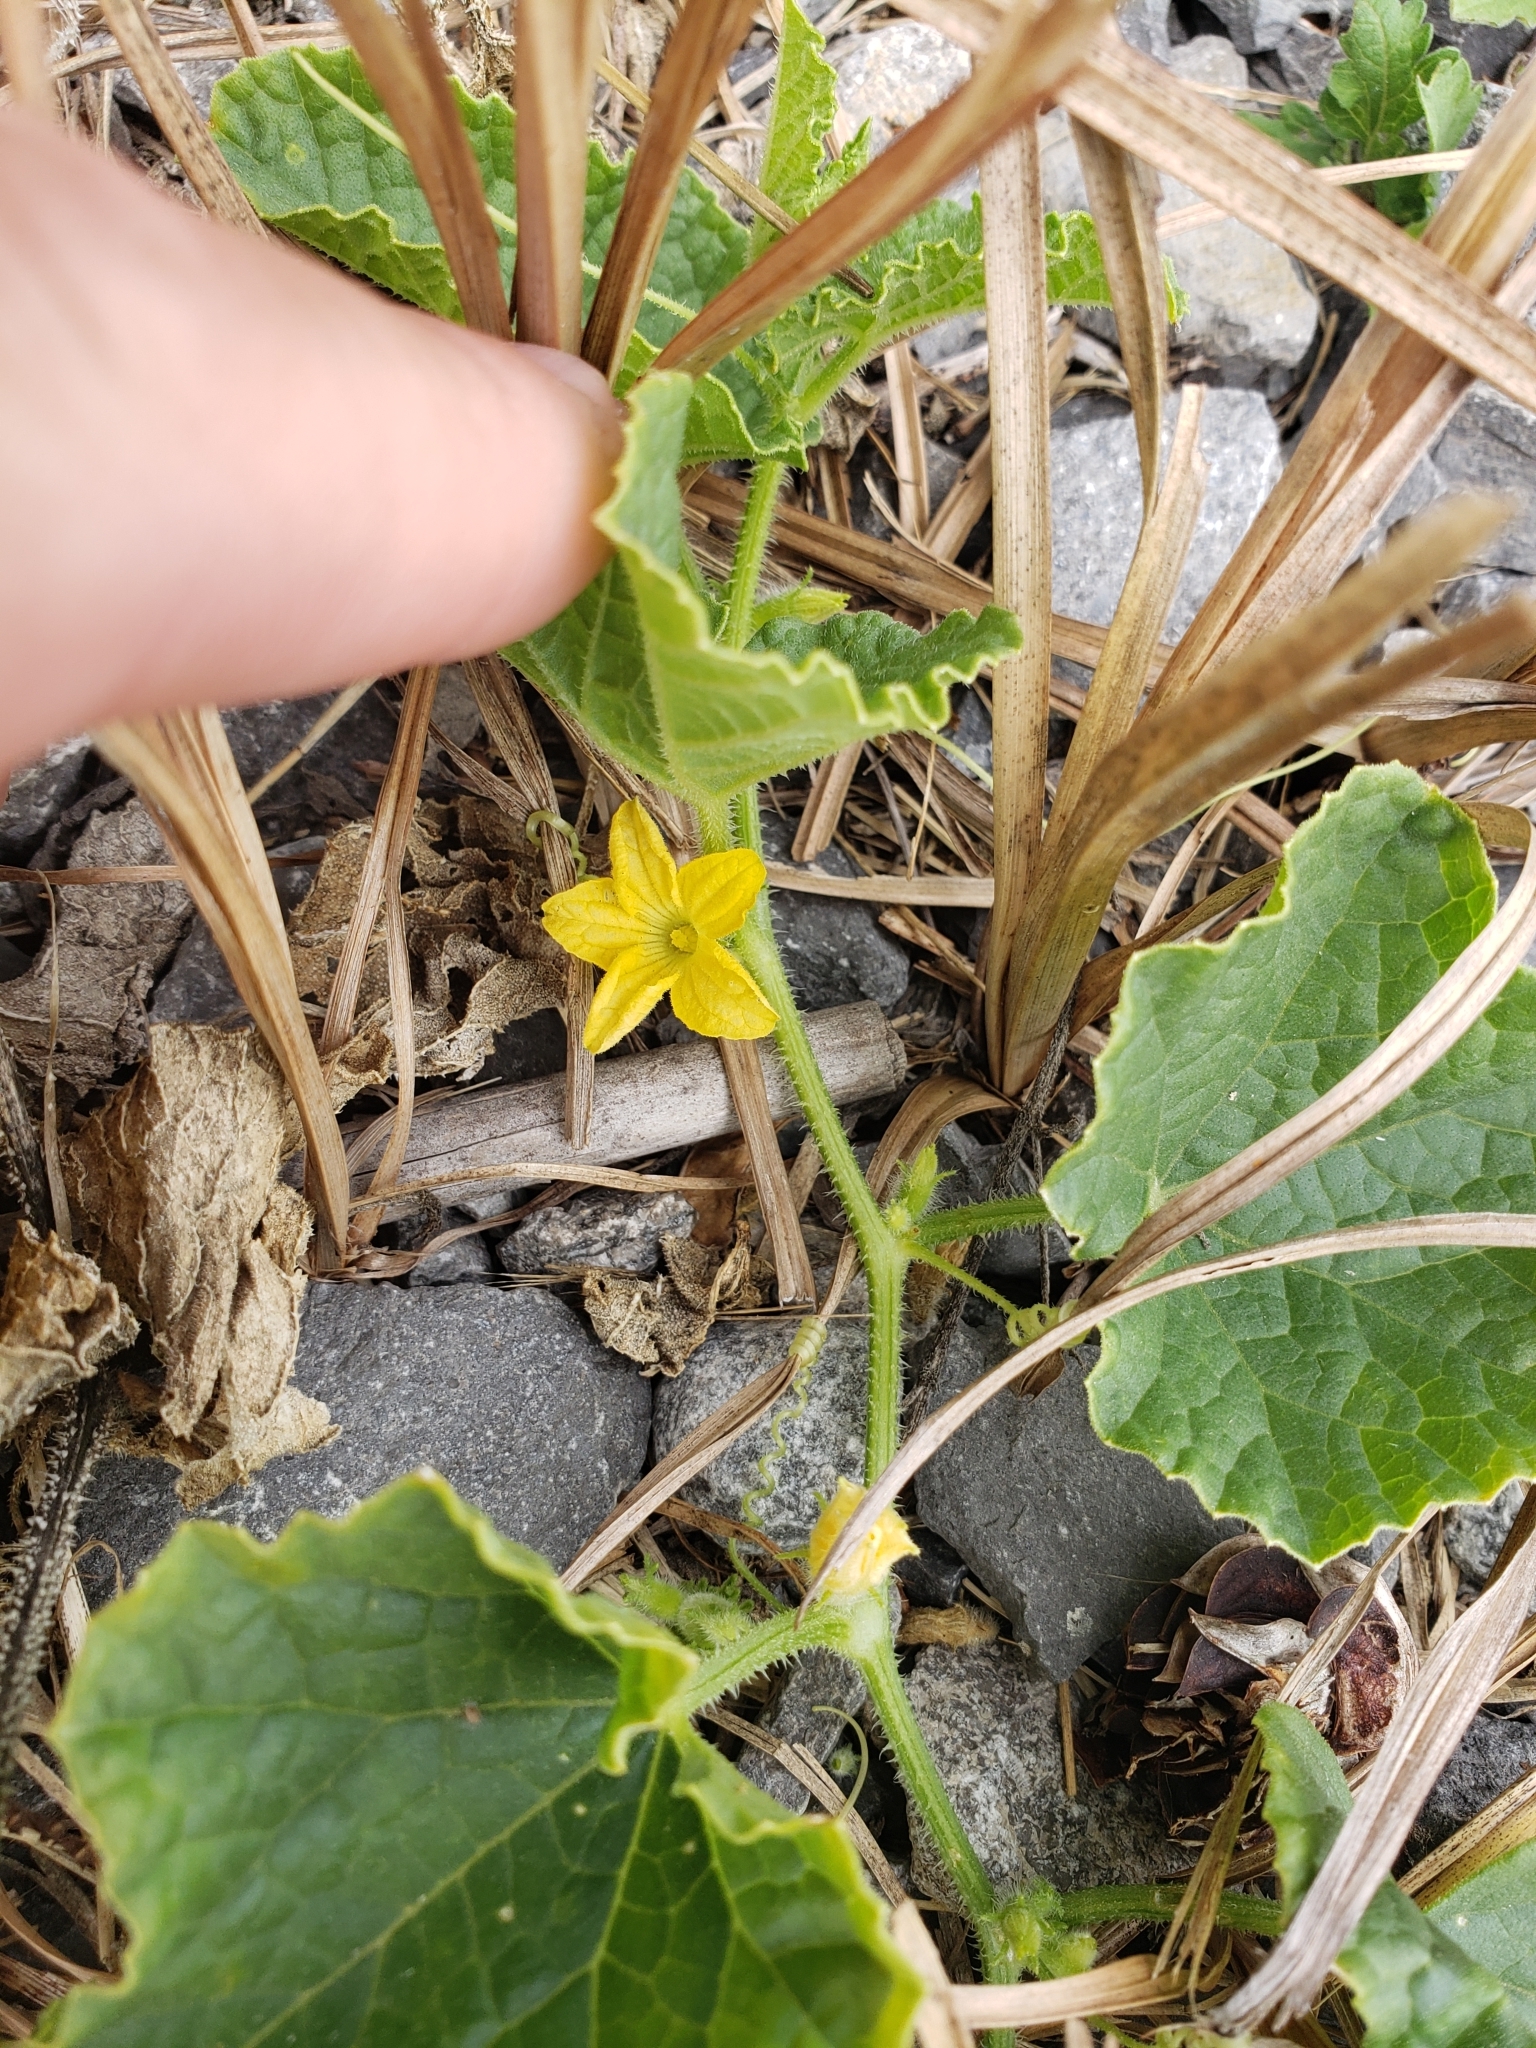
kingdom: Plantae
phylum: Tracheophyta
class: Magnoliopsida
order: Cucurbitales
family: Cucurbitaceae
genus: Cucumis
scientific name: Cucumis melo
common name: Melon
